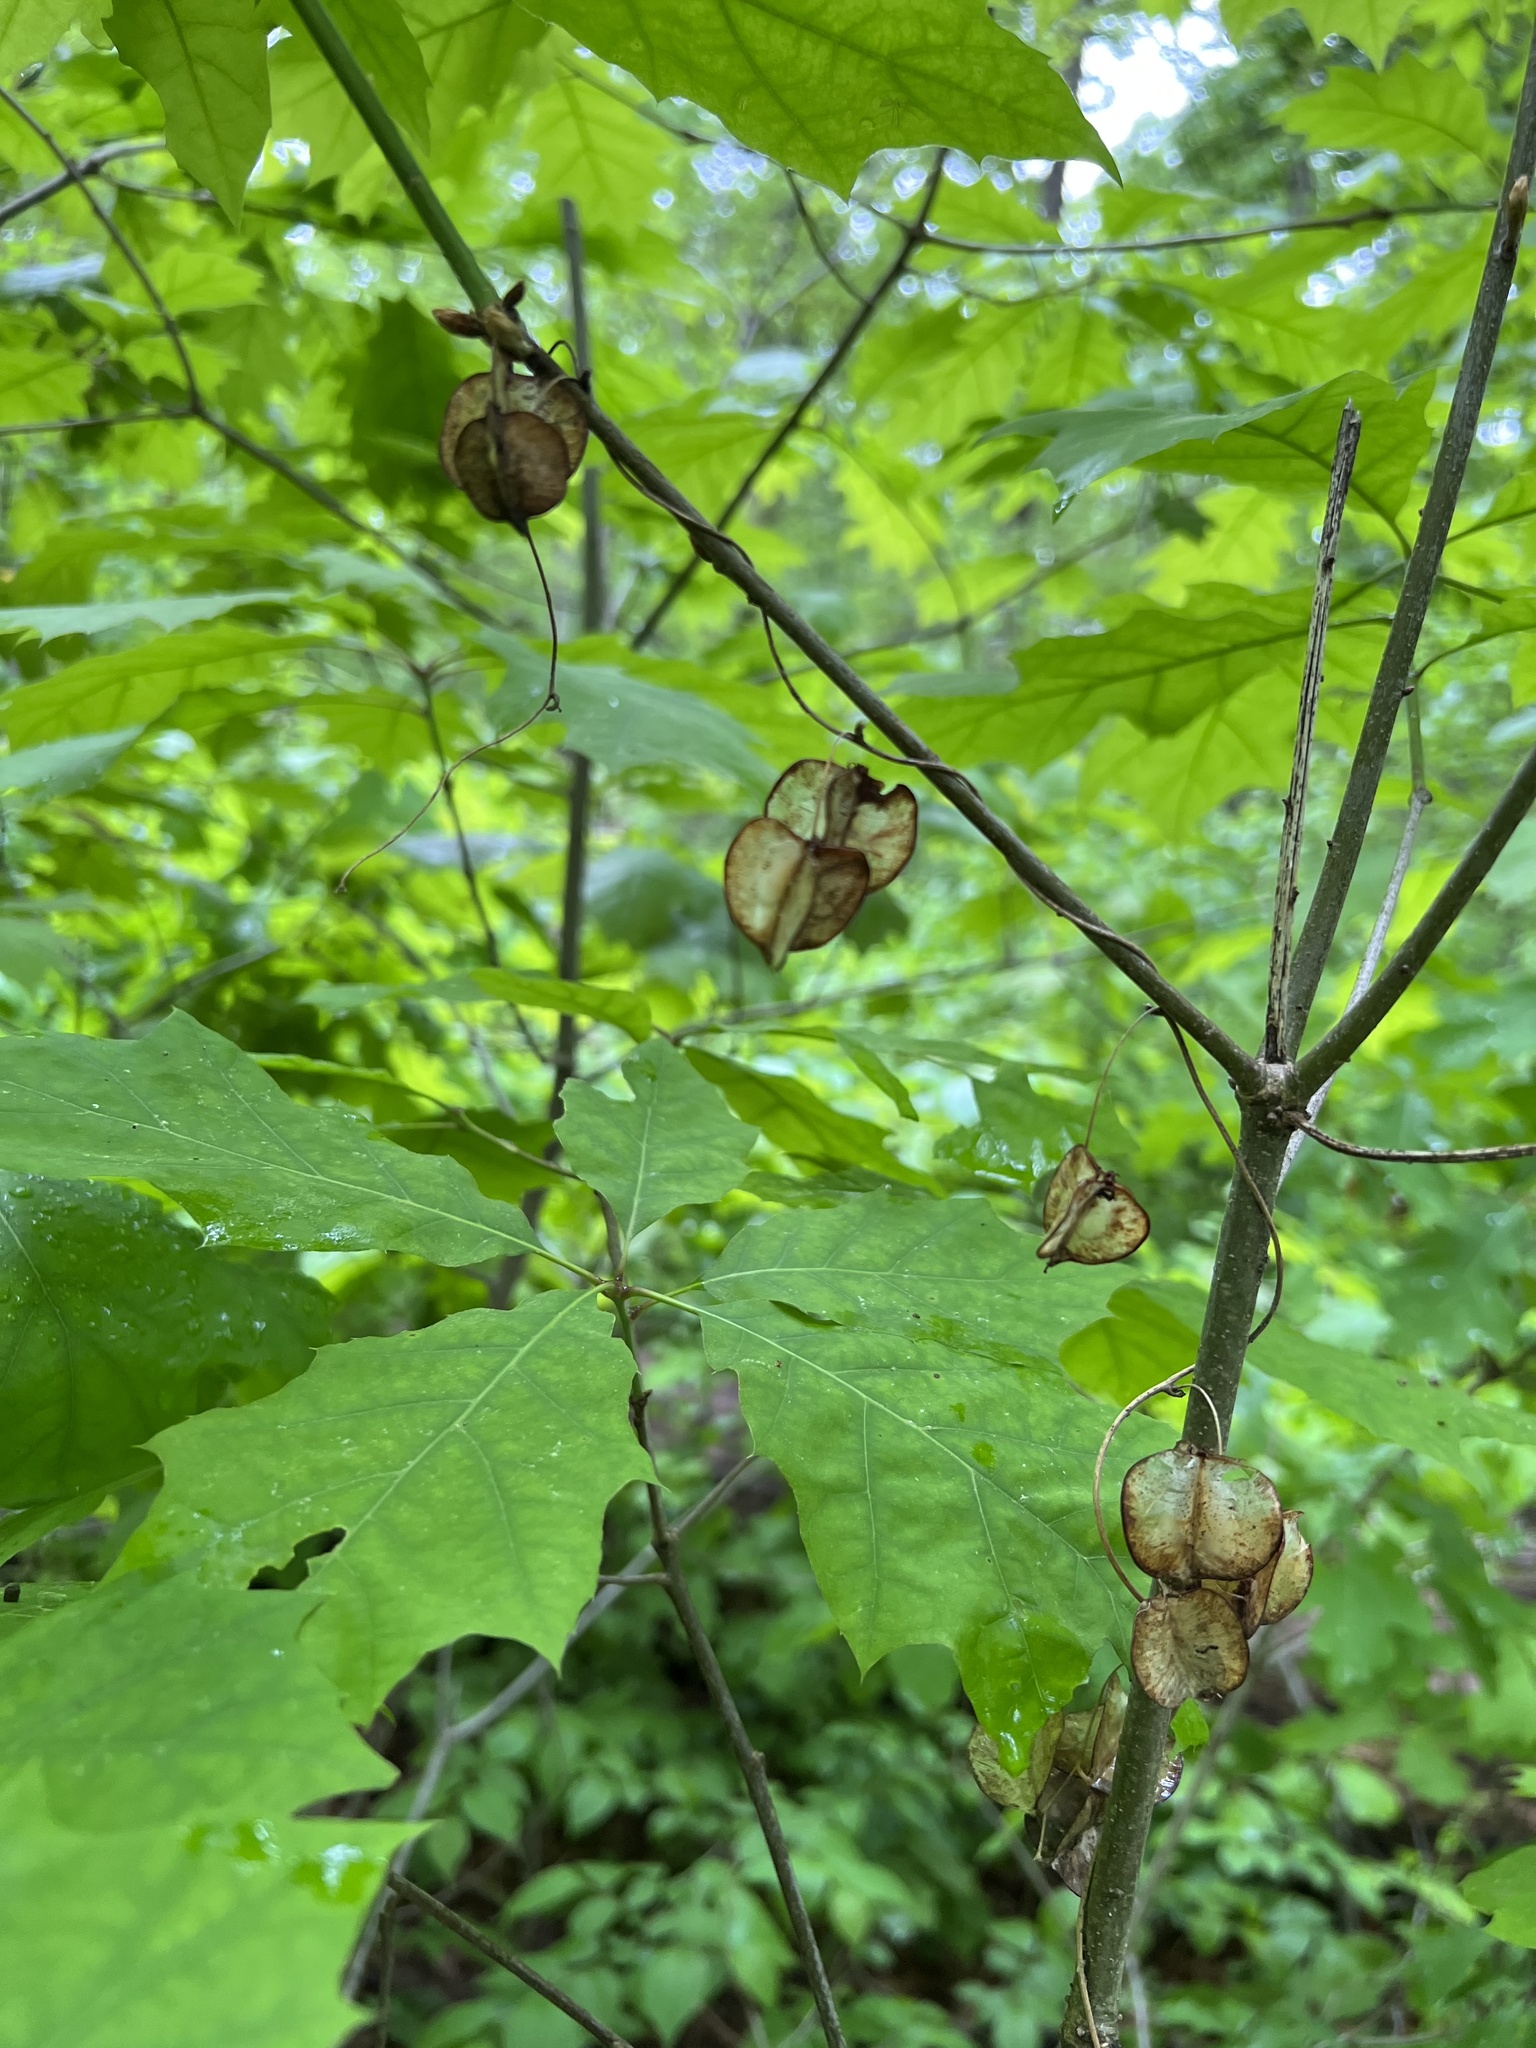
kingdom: Plantae
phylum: Tracheophyta
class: Liliopsida
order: Dioscoreales
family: Dioscoreaceae
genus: Dioscorea
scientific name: Dioscorea villosa
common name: Wild yam
